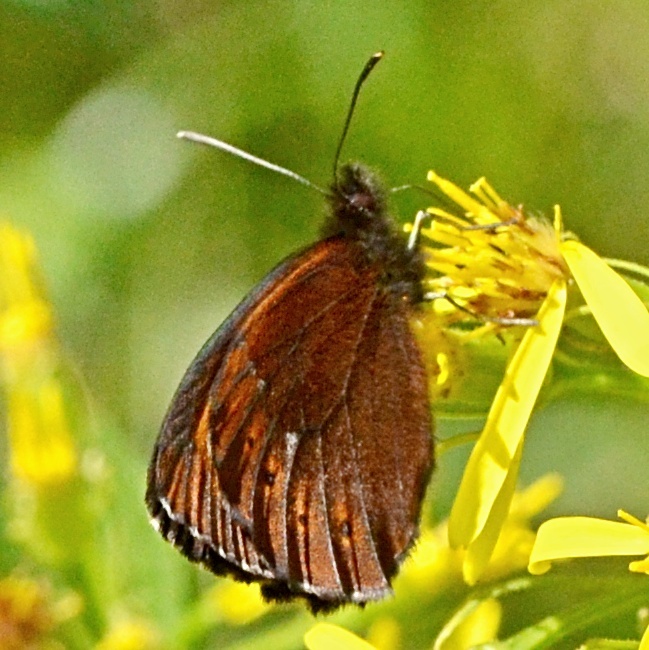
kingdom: Animalia
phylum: Arthropoda
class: Insecta
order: Lepidoptera
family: Nymphalidae
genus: Erebia
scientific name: Erebia ligea
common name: Arran brown
